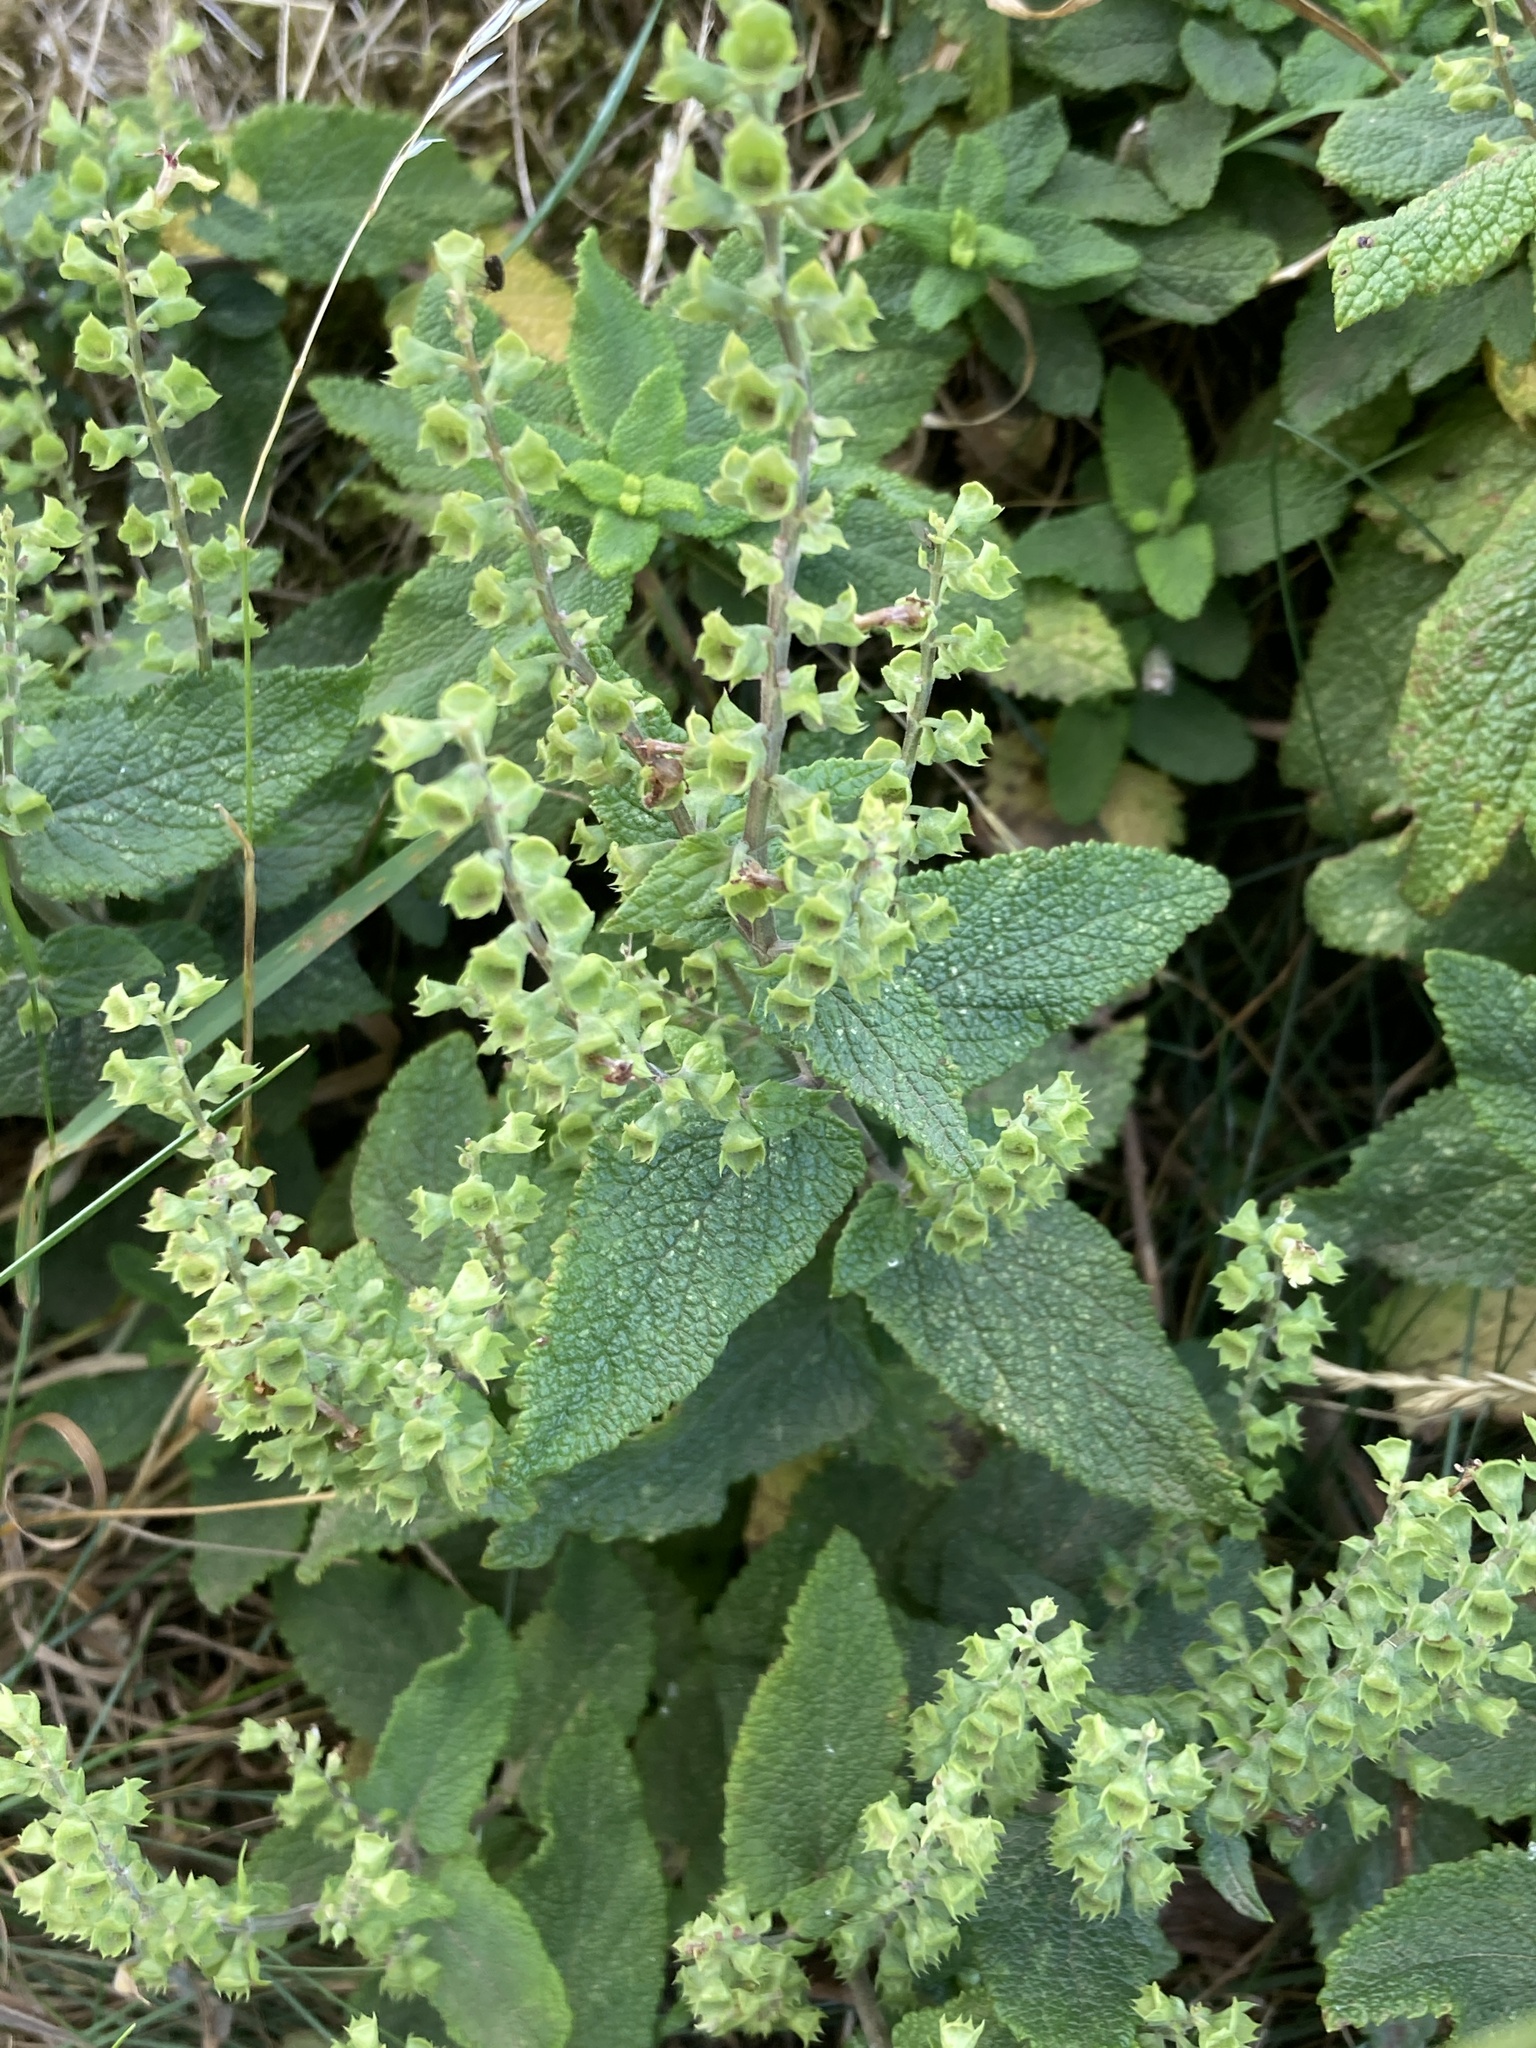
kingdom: Plantae
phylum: Tracheophyta
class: Magnoliopsida
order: Lamiales
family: Lamiaceae
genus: Teucrium
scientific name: Teucrium scorodonia
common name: Woodland germander
